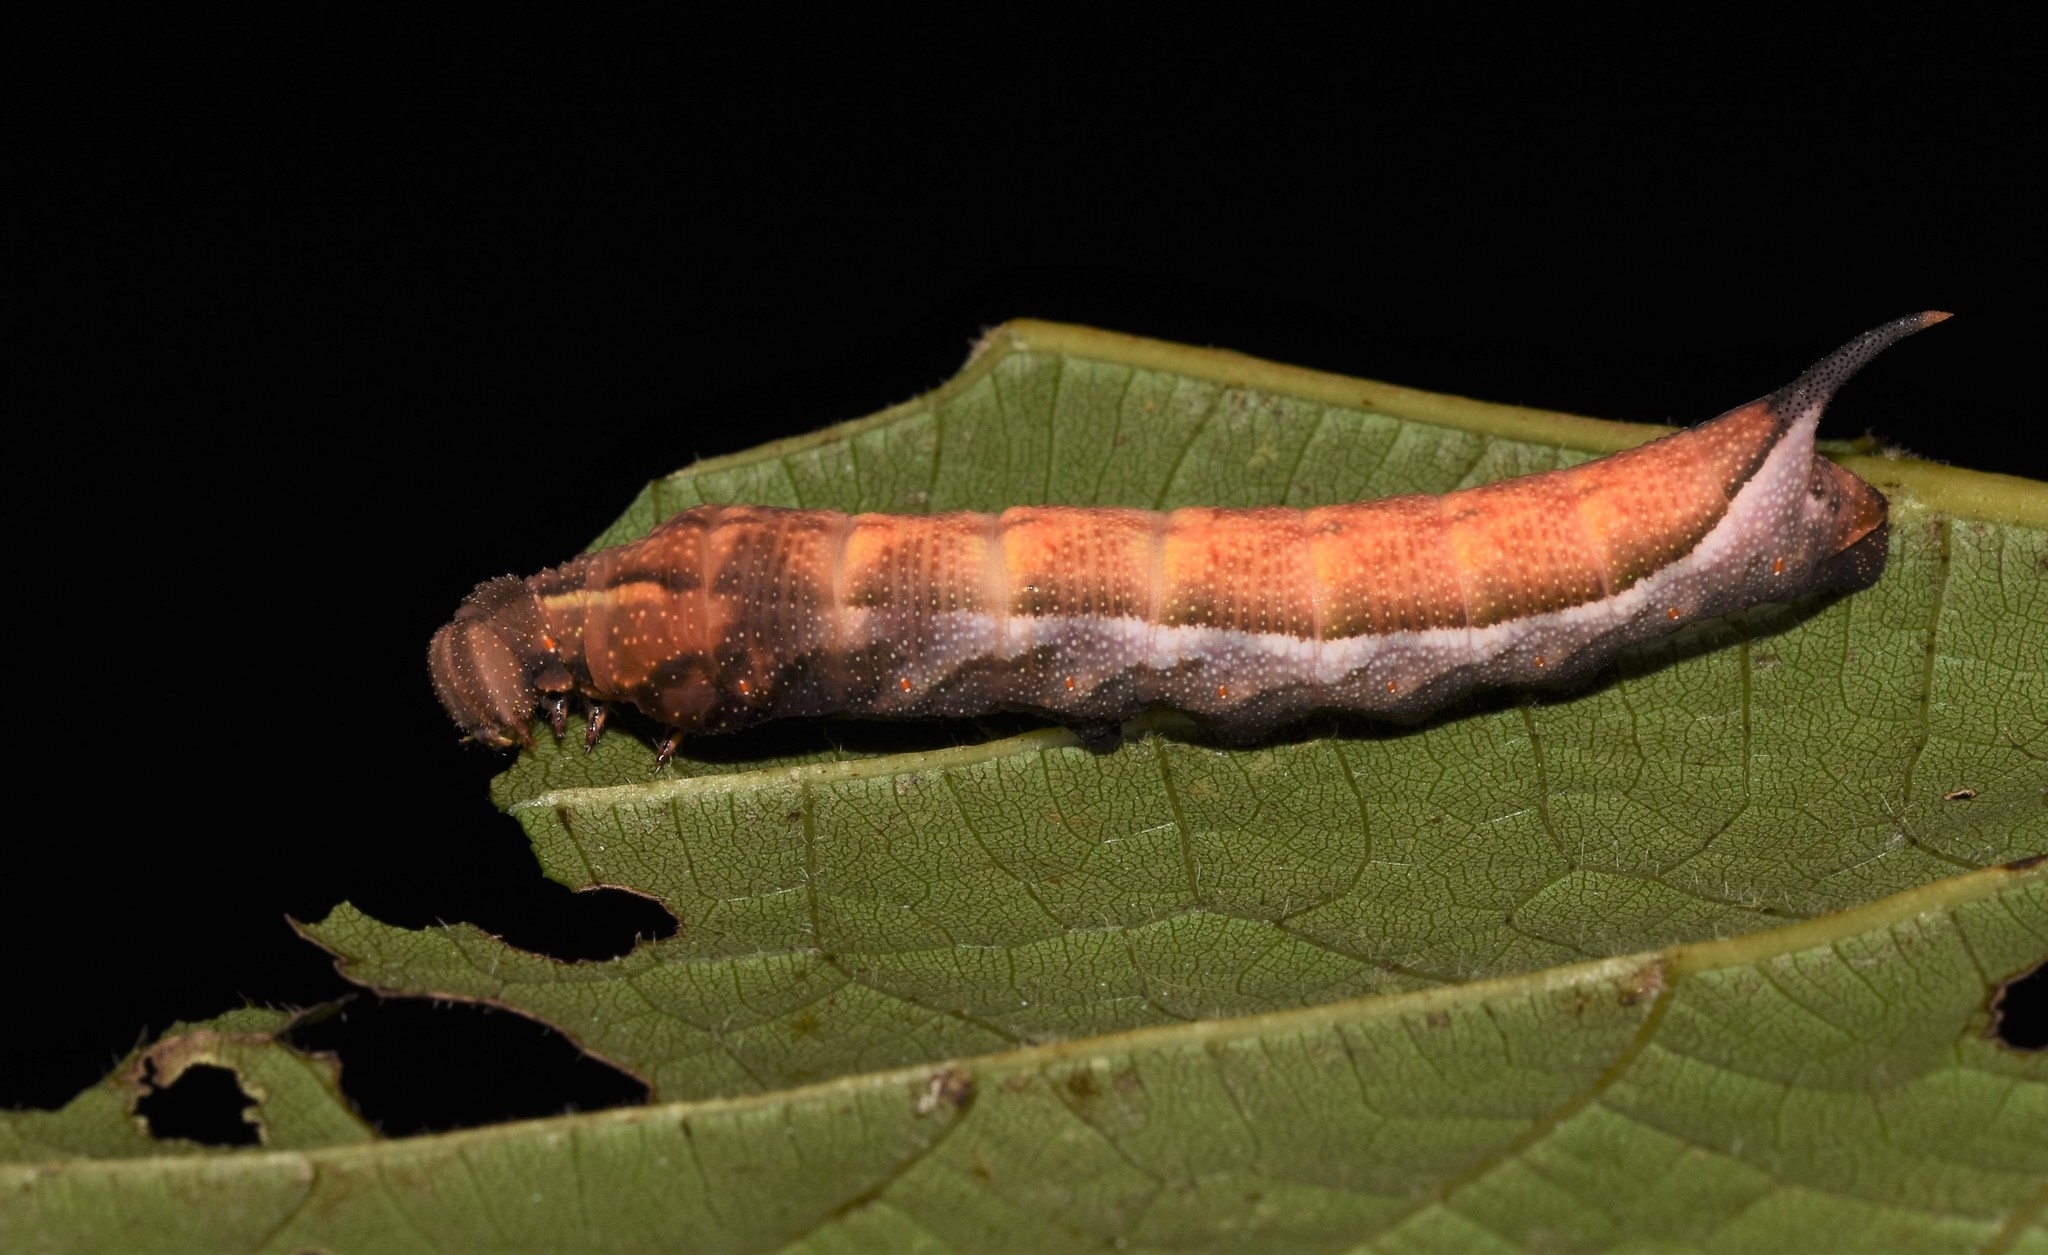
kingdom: Animalia
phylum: Arthropoda
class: Insecta
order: Lepidoptera
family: Sphingidae
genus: Darapsa
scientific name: Darapsa myron
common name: Hog sphinx
